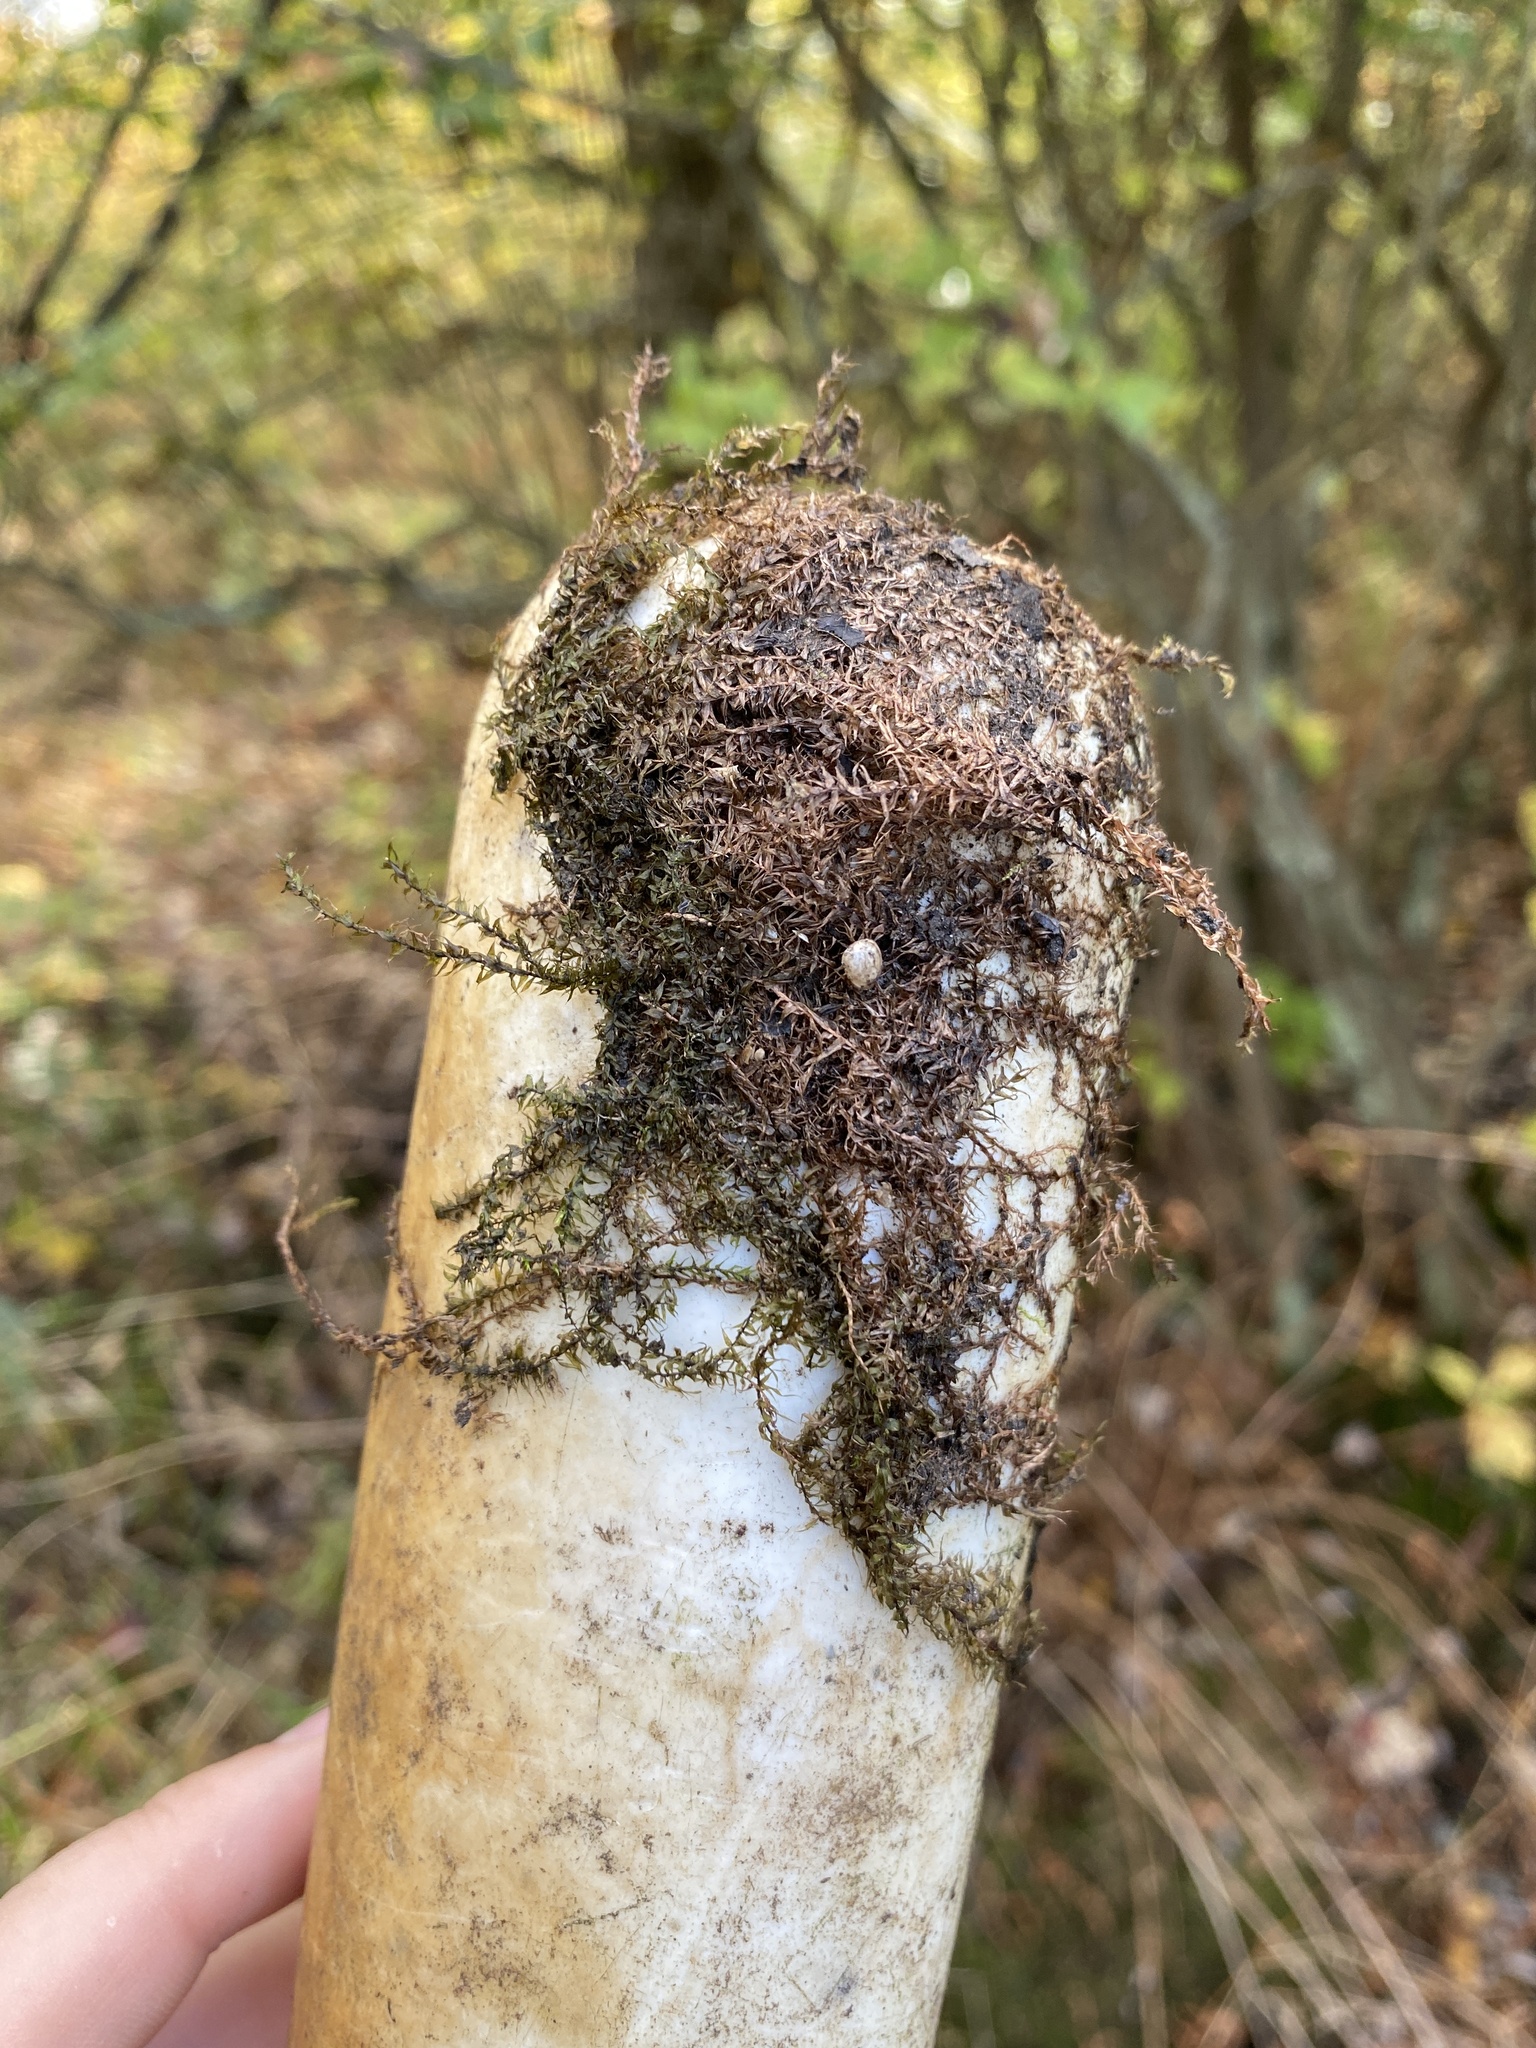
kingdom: Plantae
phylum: Bryophyta
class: Bryopsida
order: Hypnales
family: Amblystegiaceae
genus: Leptodictyum
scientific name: Leptodictyum riparium
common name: Riparian feather moss
